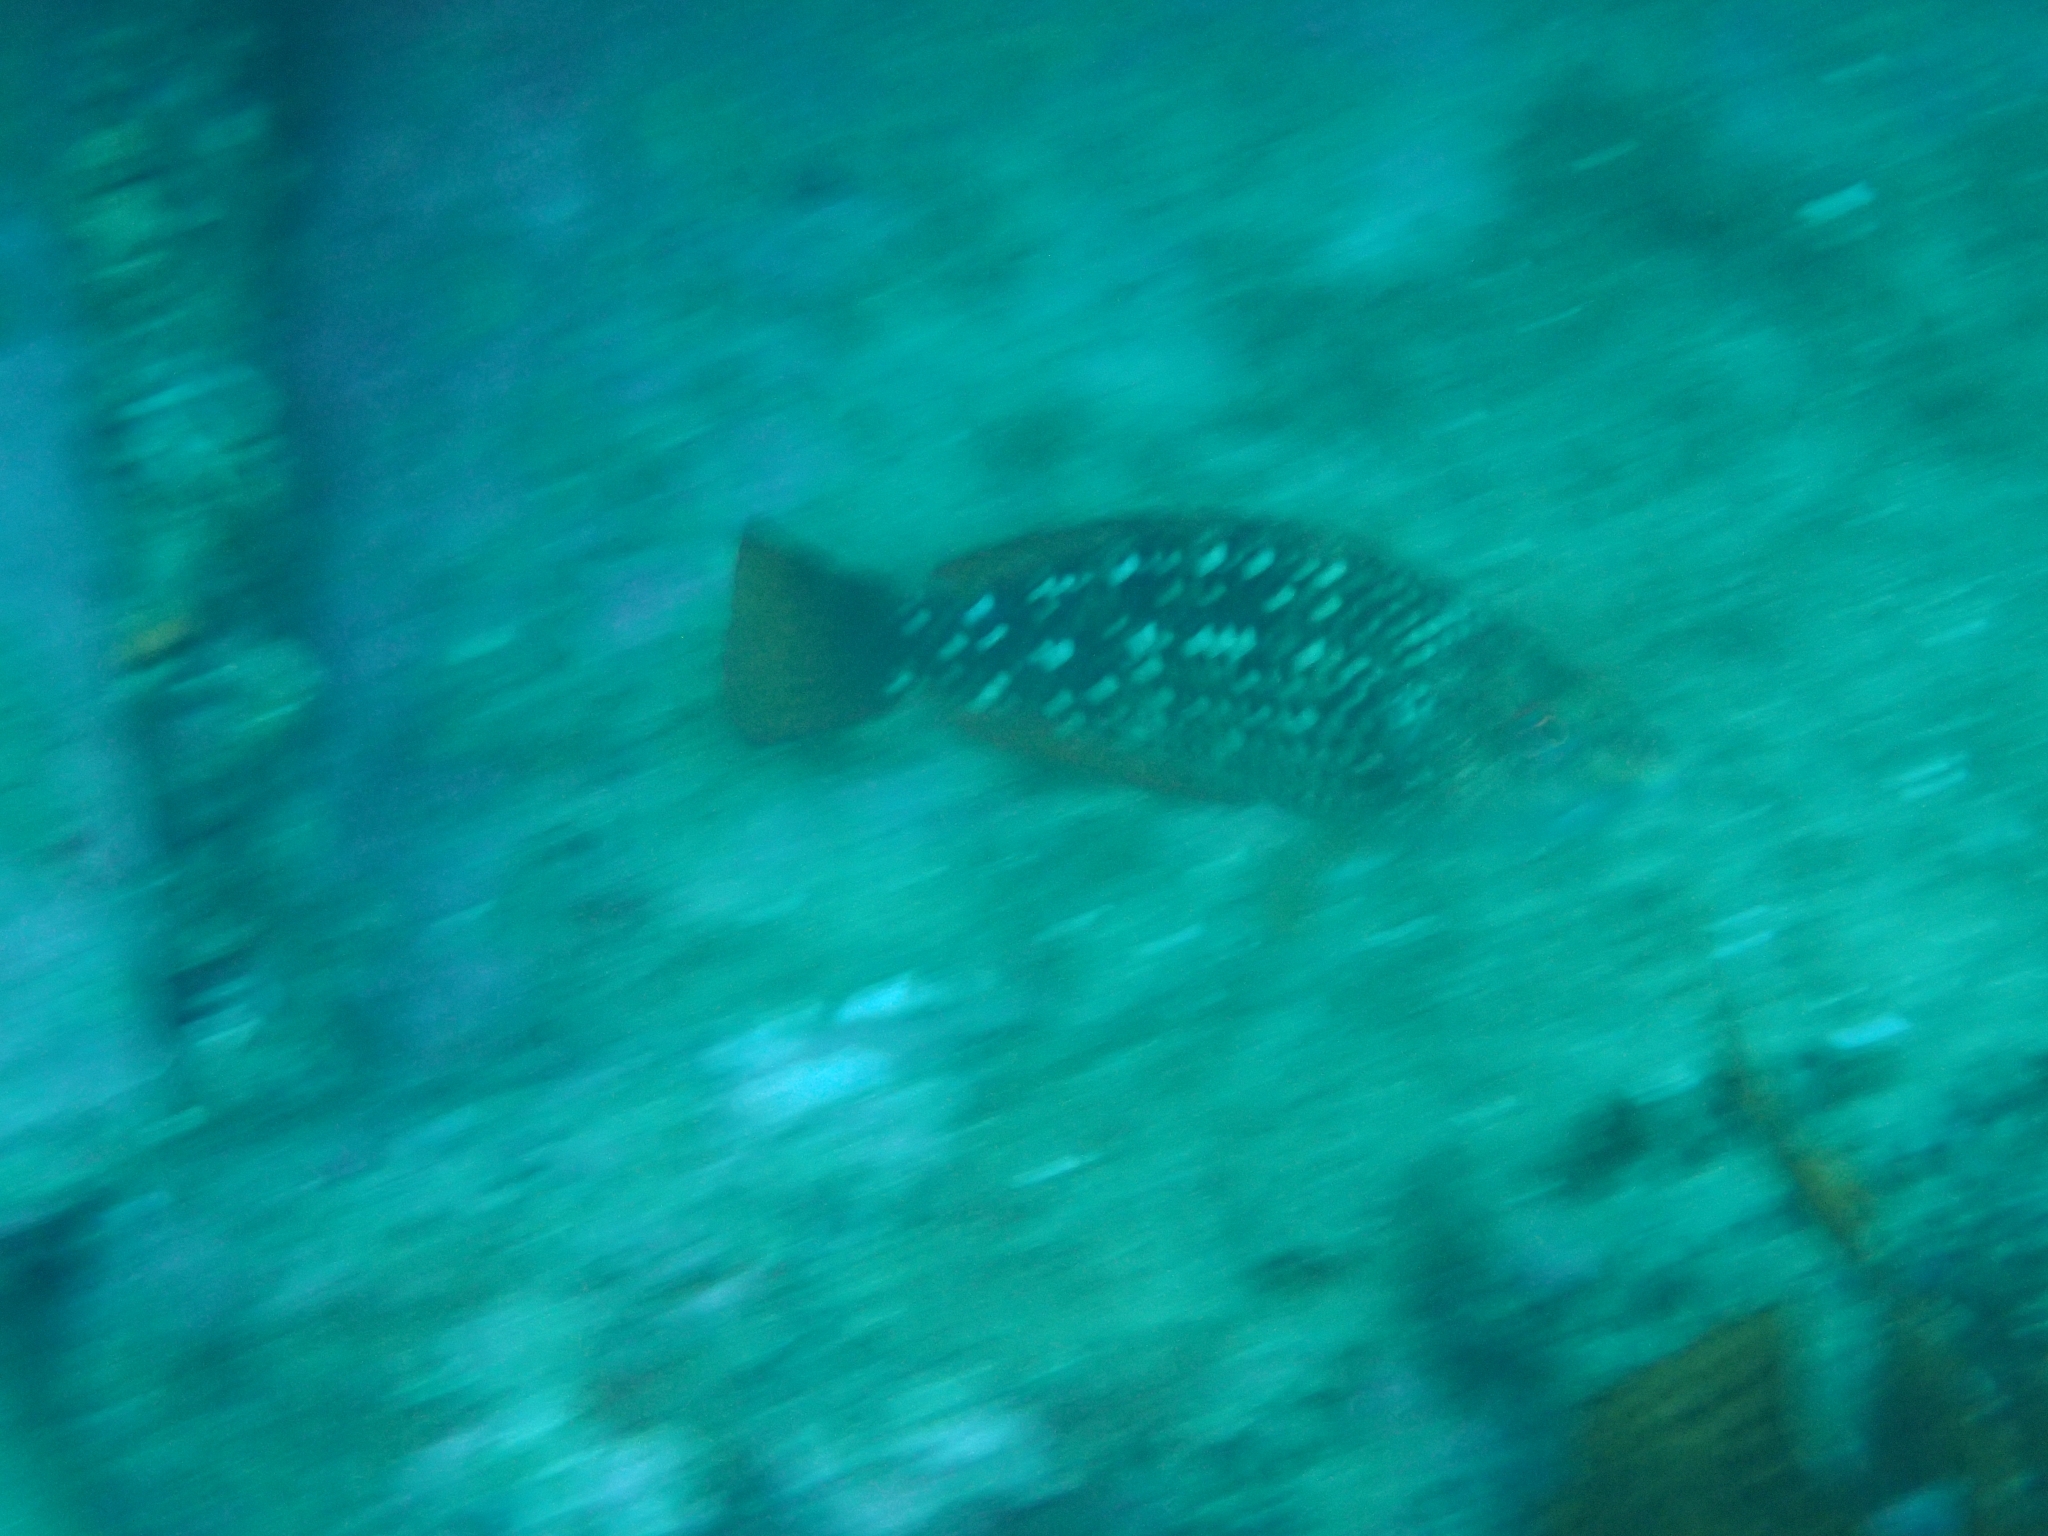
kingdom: Animalia
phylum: Chordata
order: Perciformes
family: Labridae
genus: Notolabrus
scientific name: Notolabrus gymnogenis
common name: Crimson banded wrasse
